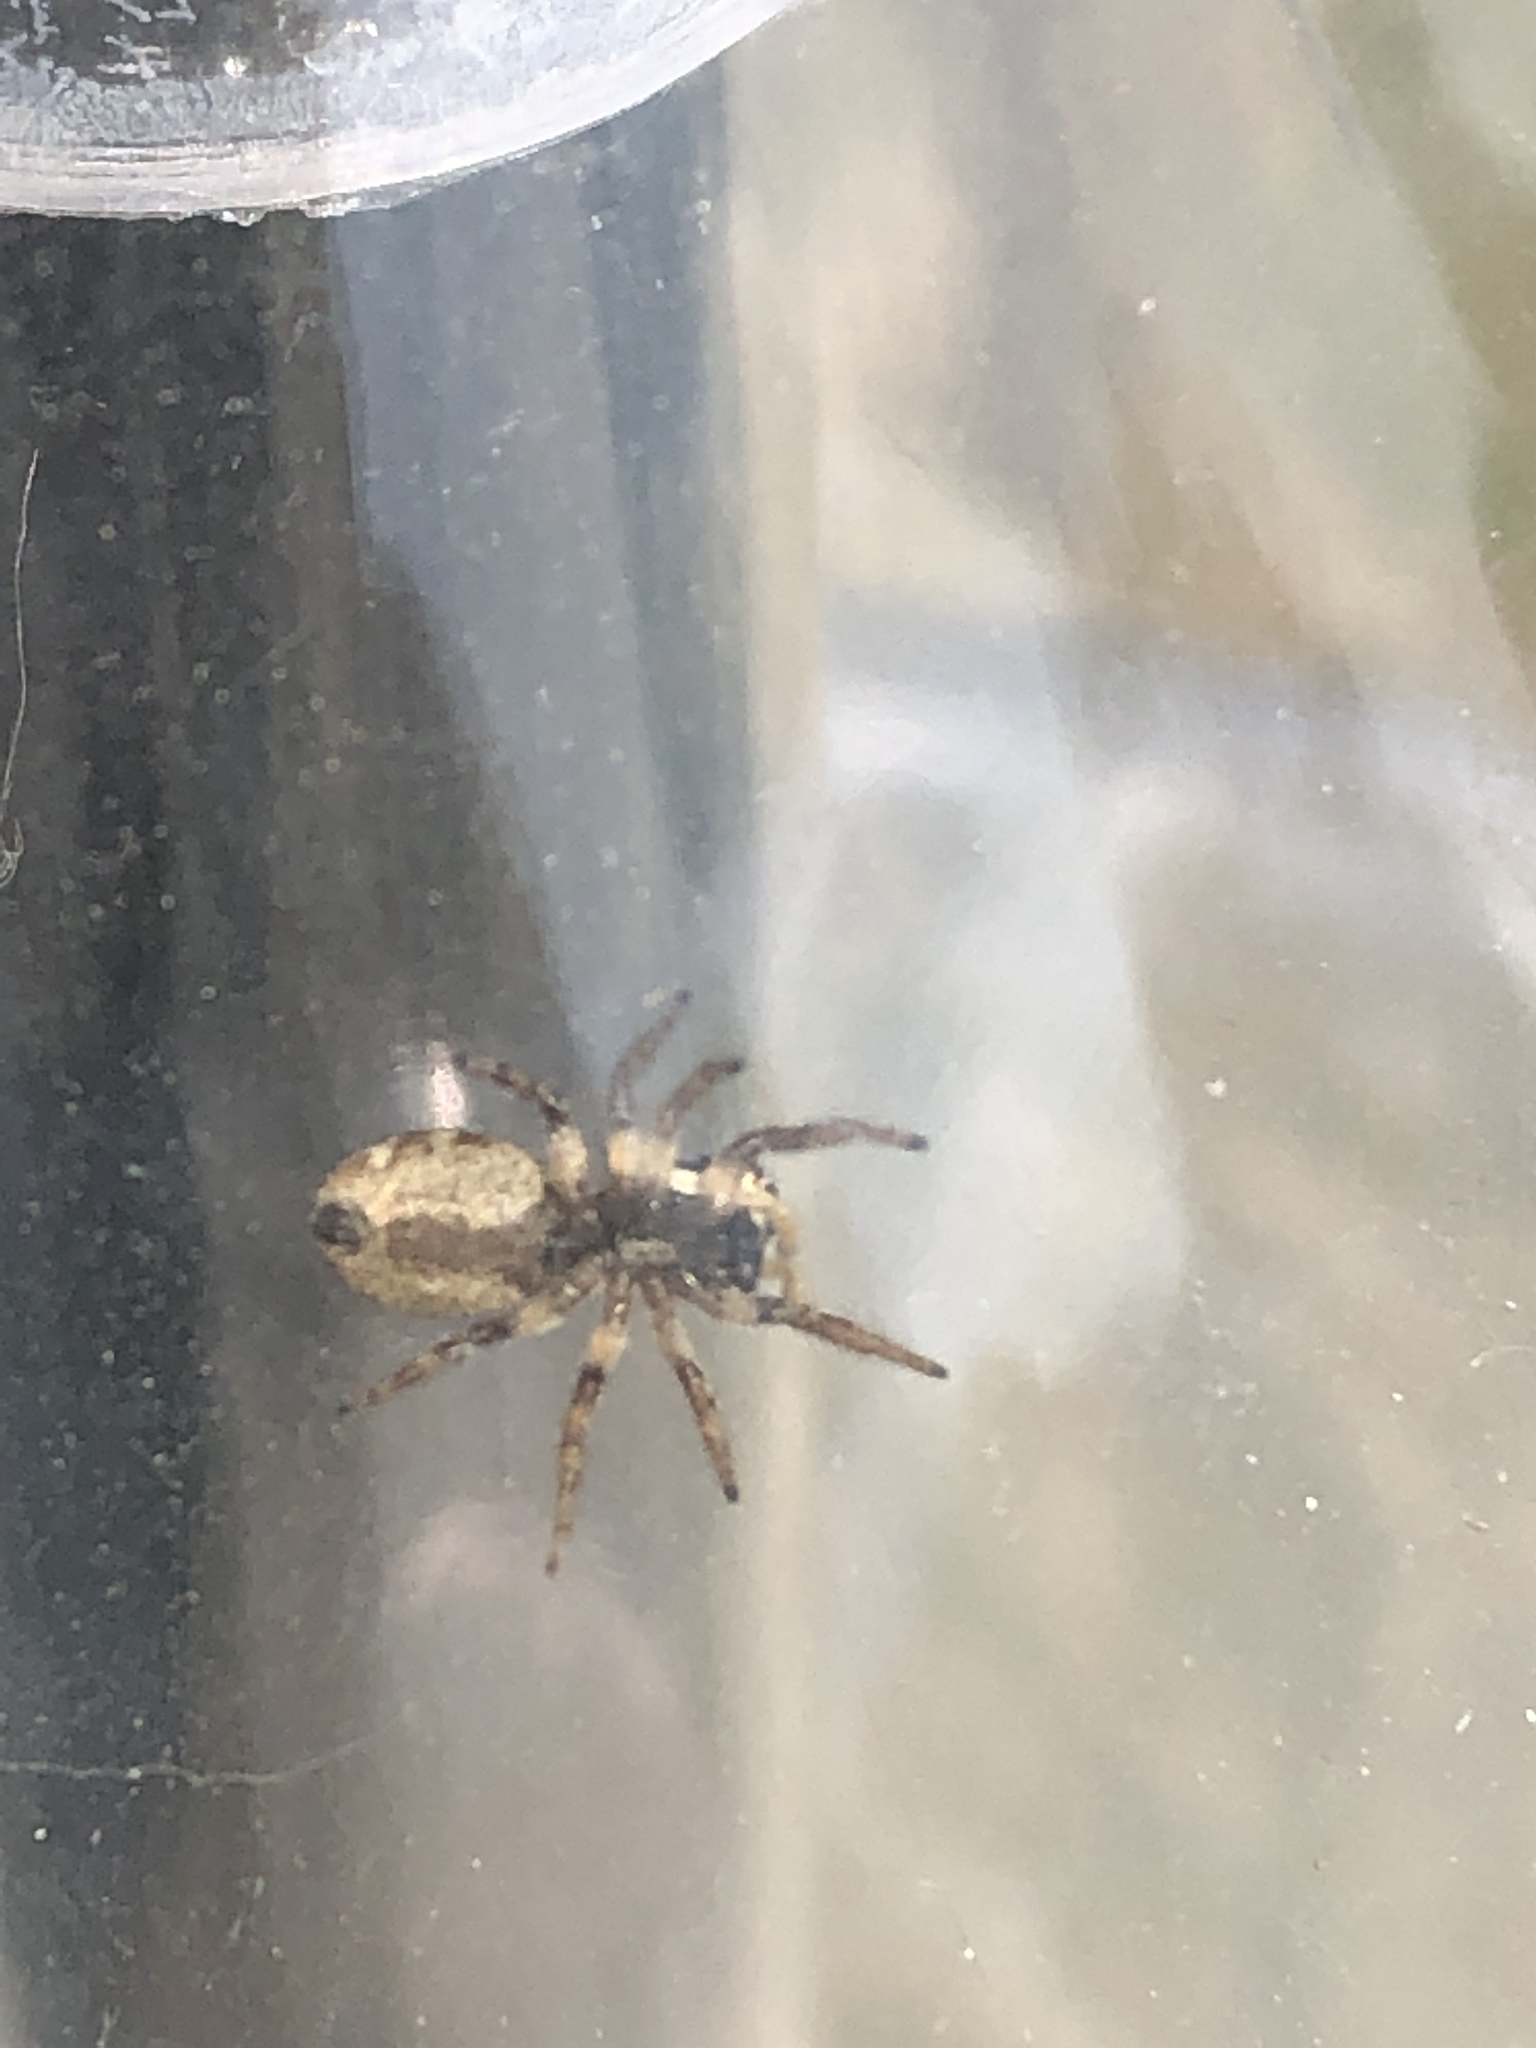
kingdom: Animalia
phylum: Arthropoda
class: Arachnida
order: Araneae
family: Salticidae
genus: Salticus
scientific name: Salticus scenicus
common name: Zebra jumper
